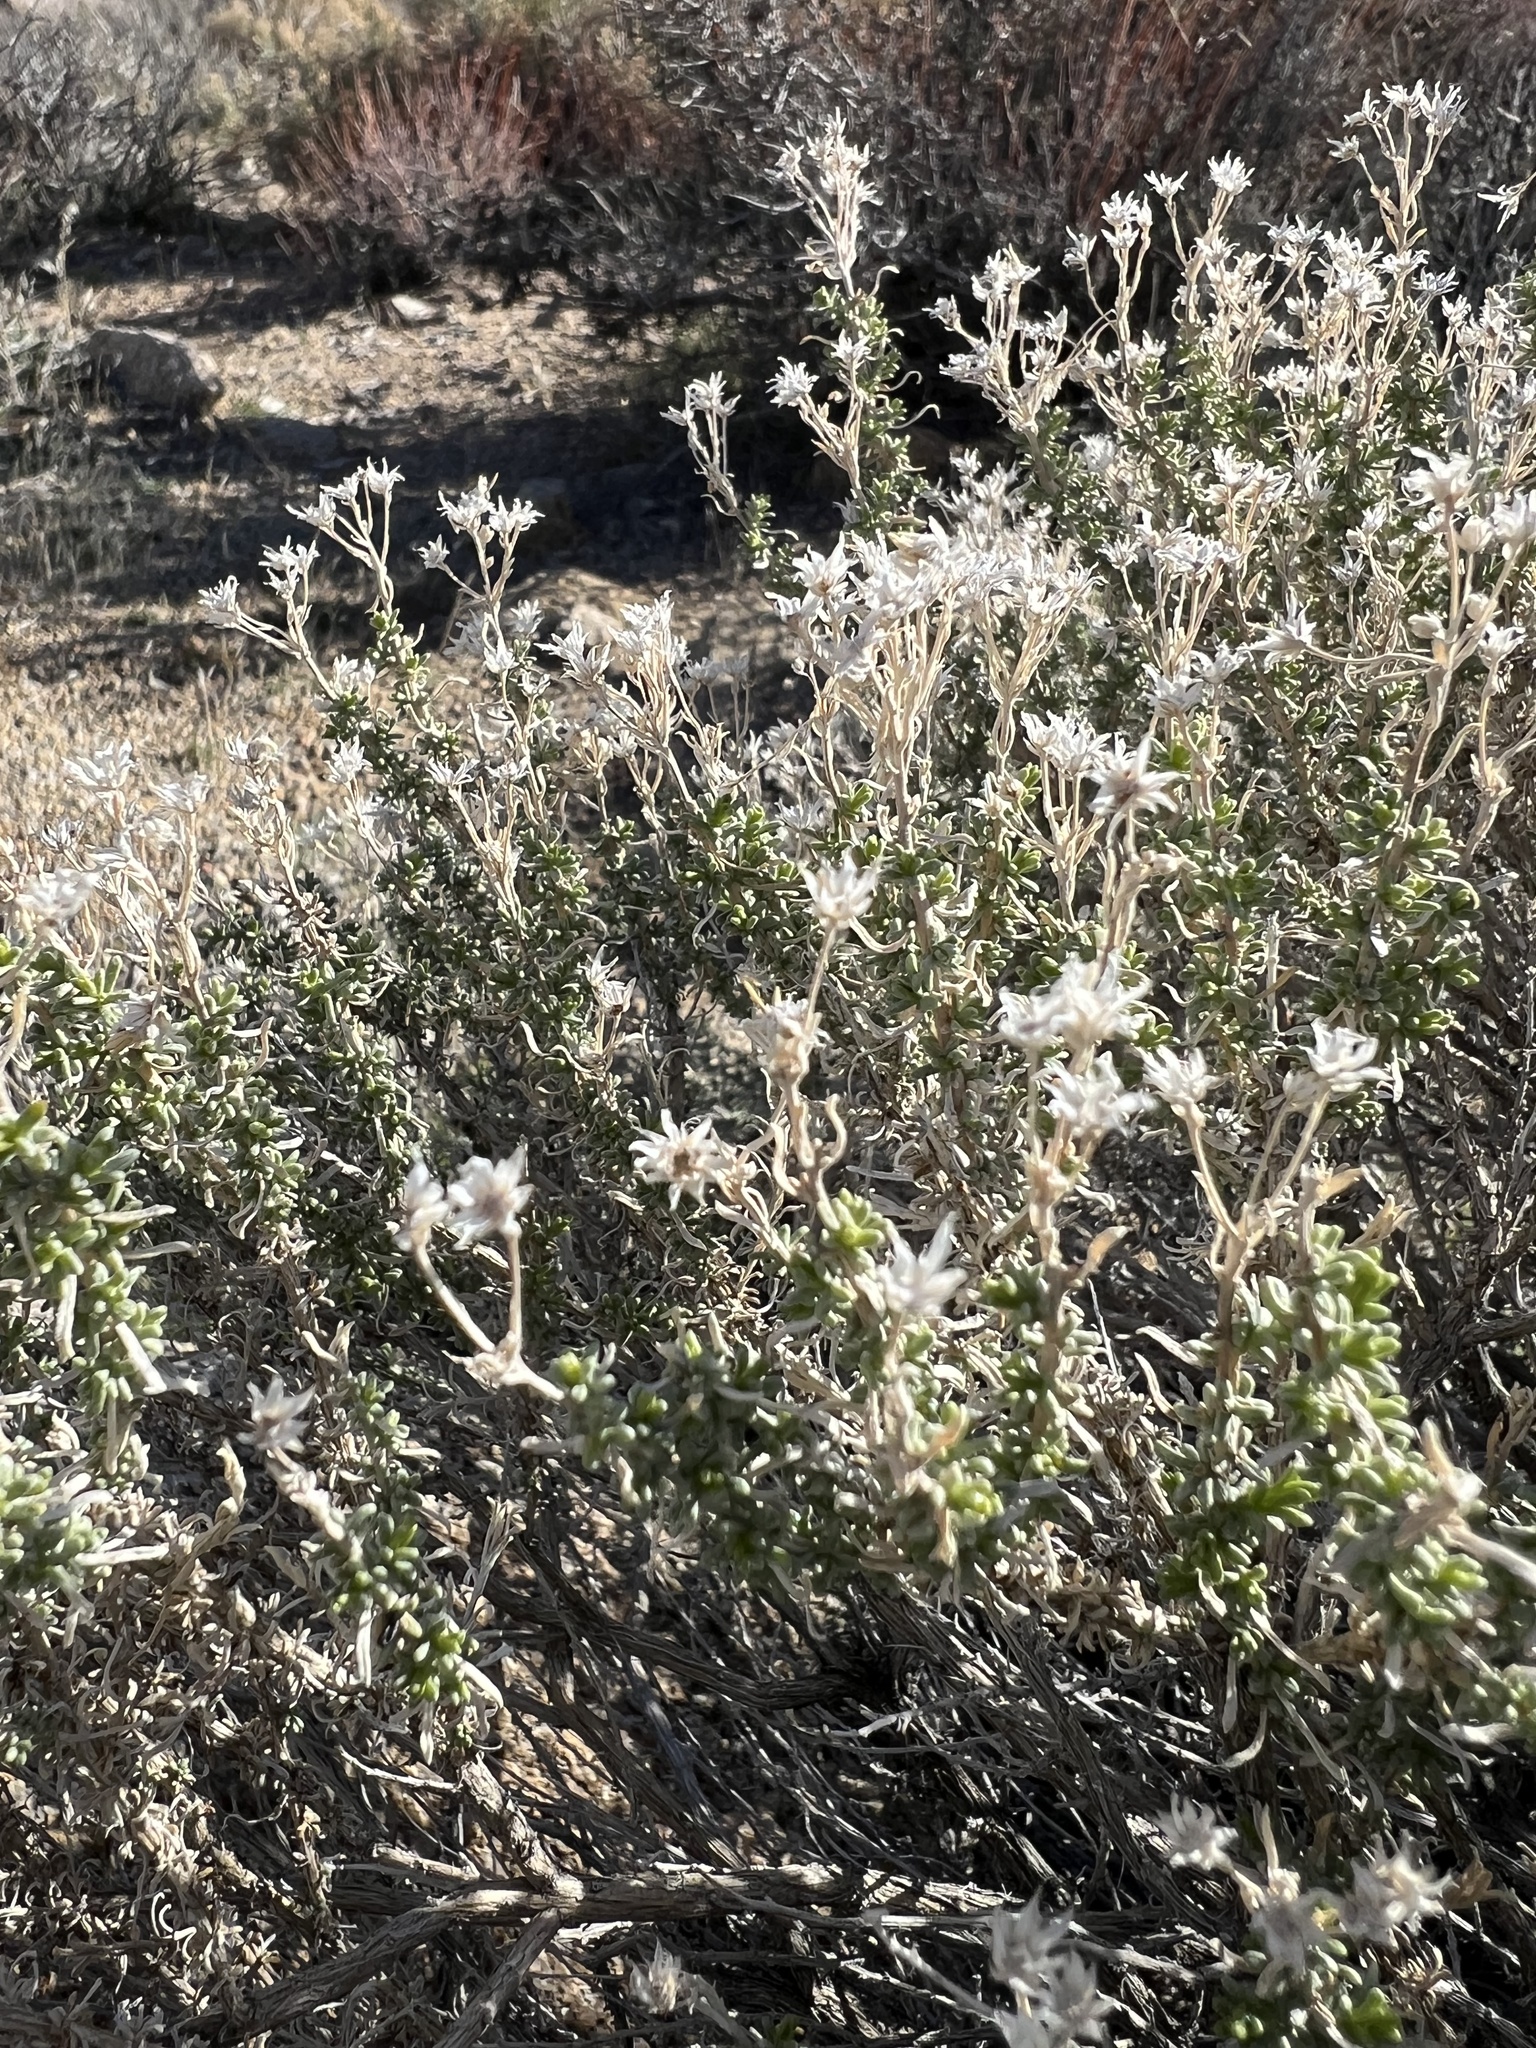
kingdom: Plantae
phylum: Tracheophyta
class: Magnoliopsida
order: Asterales
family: Asteraceae
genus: Ericameria
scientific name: Ericameria cooperi
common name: Cooper's goldenbush
